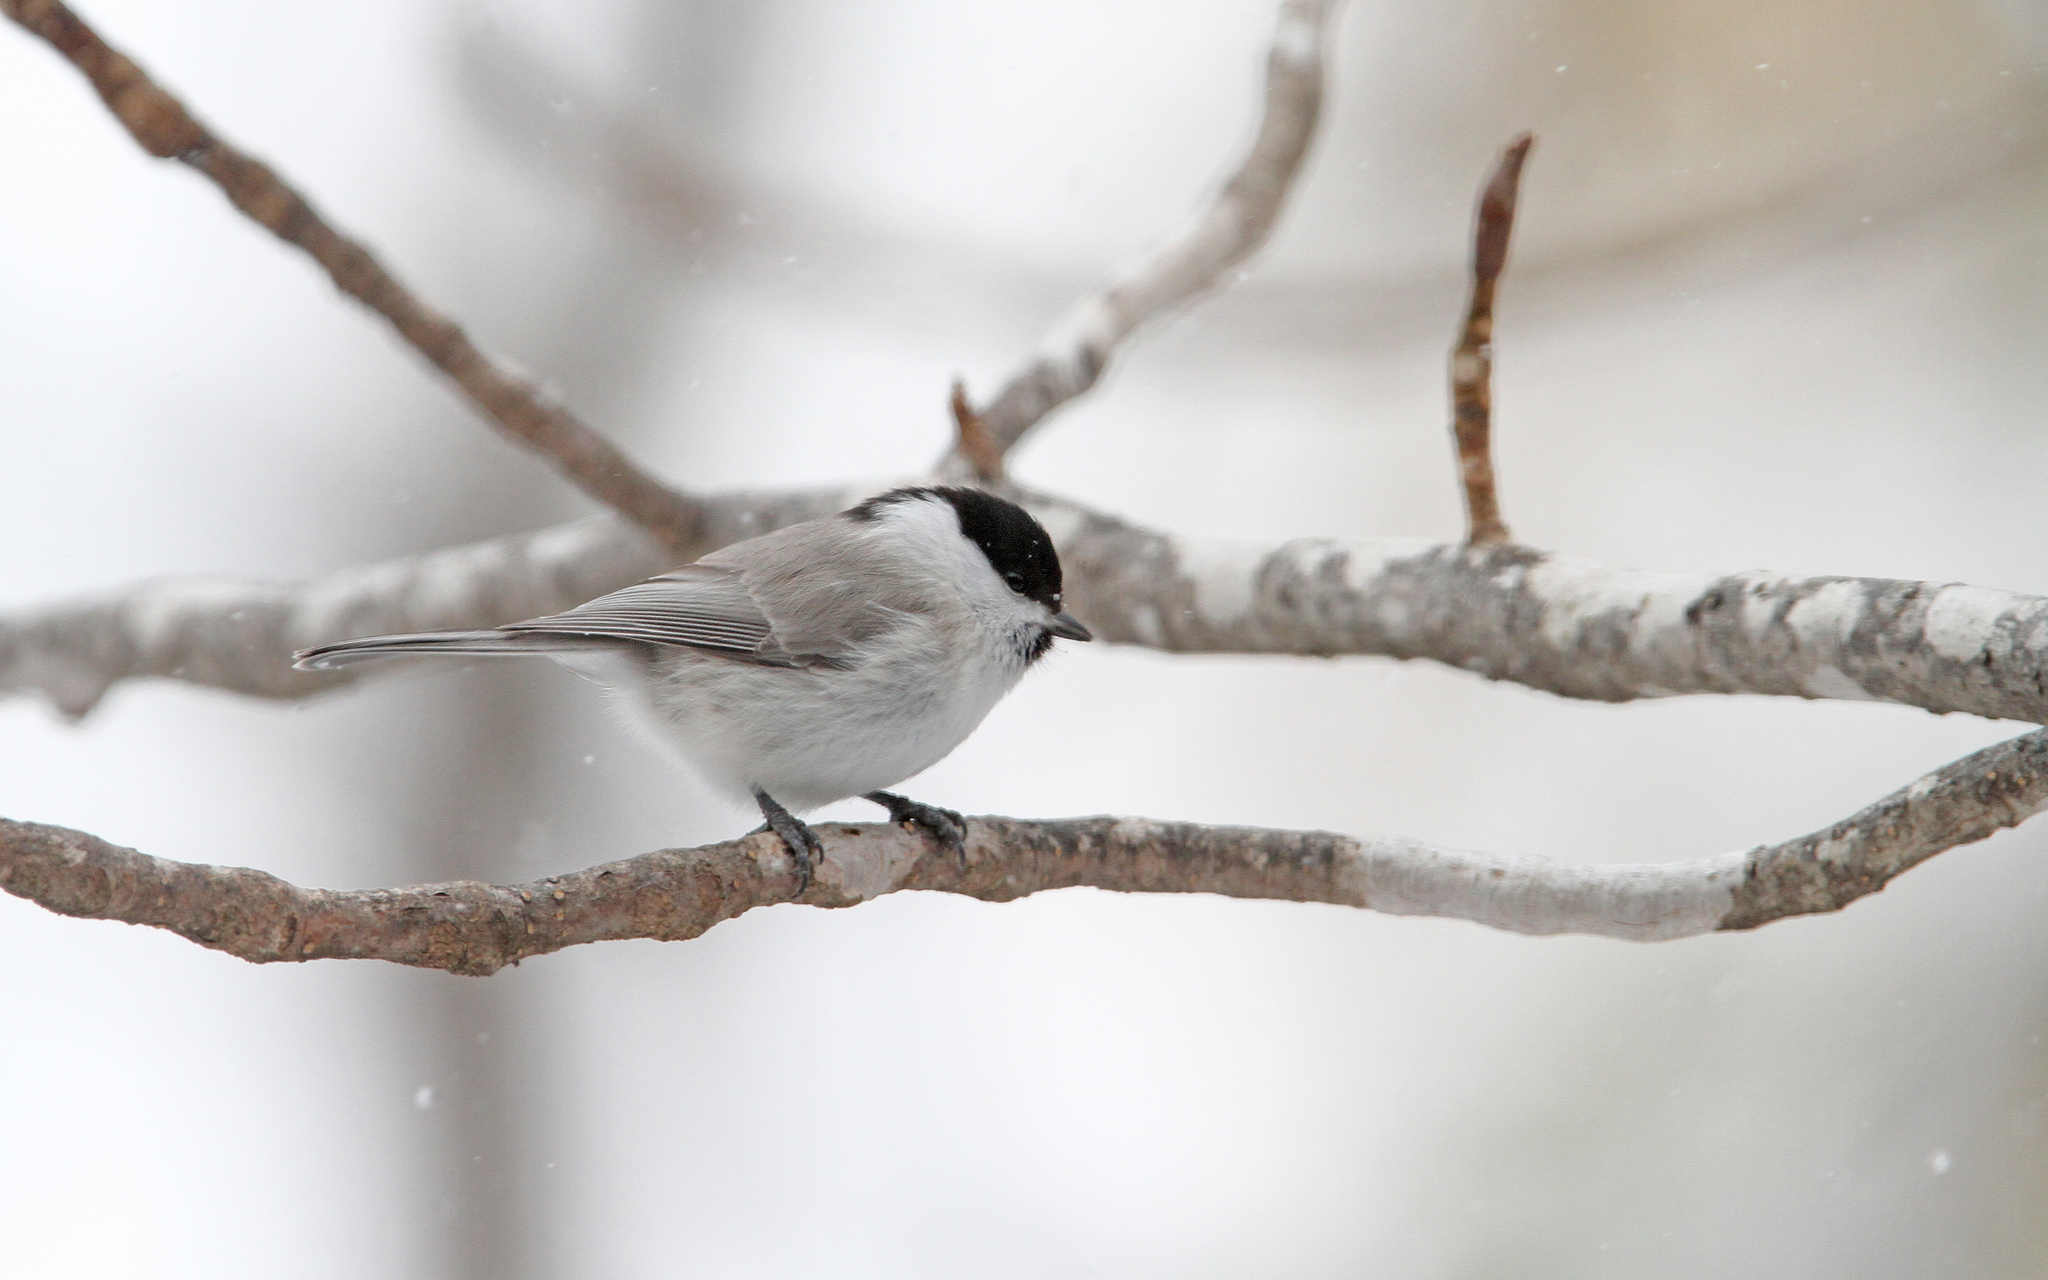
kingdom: Animalia
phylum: Chordata
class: Aves
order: Passeriformes
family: Paridae
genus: Poecile
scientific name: Poecile montanus
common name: Willow tit
